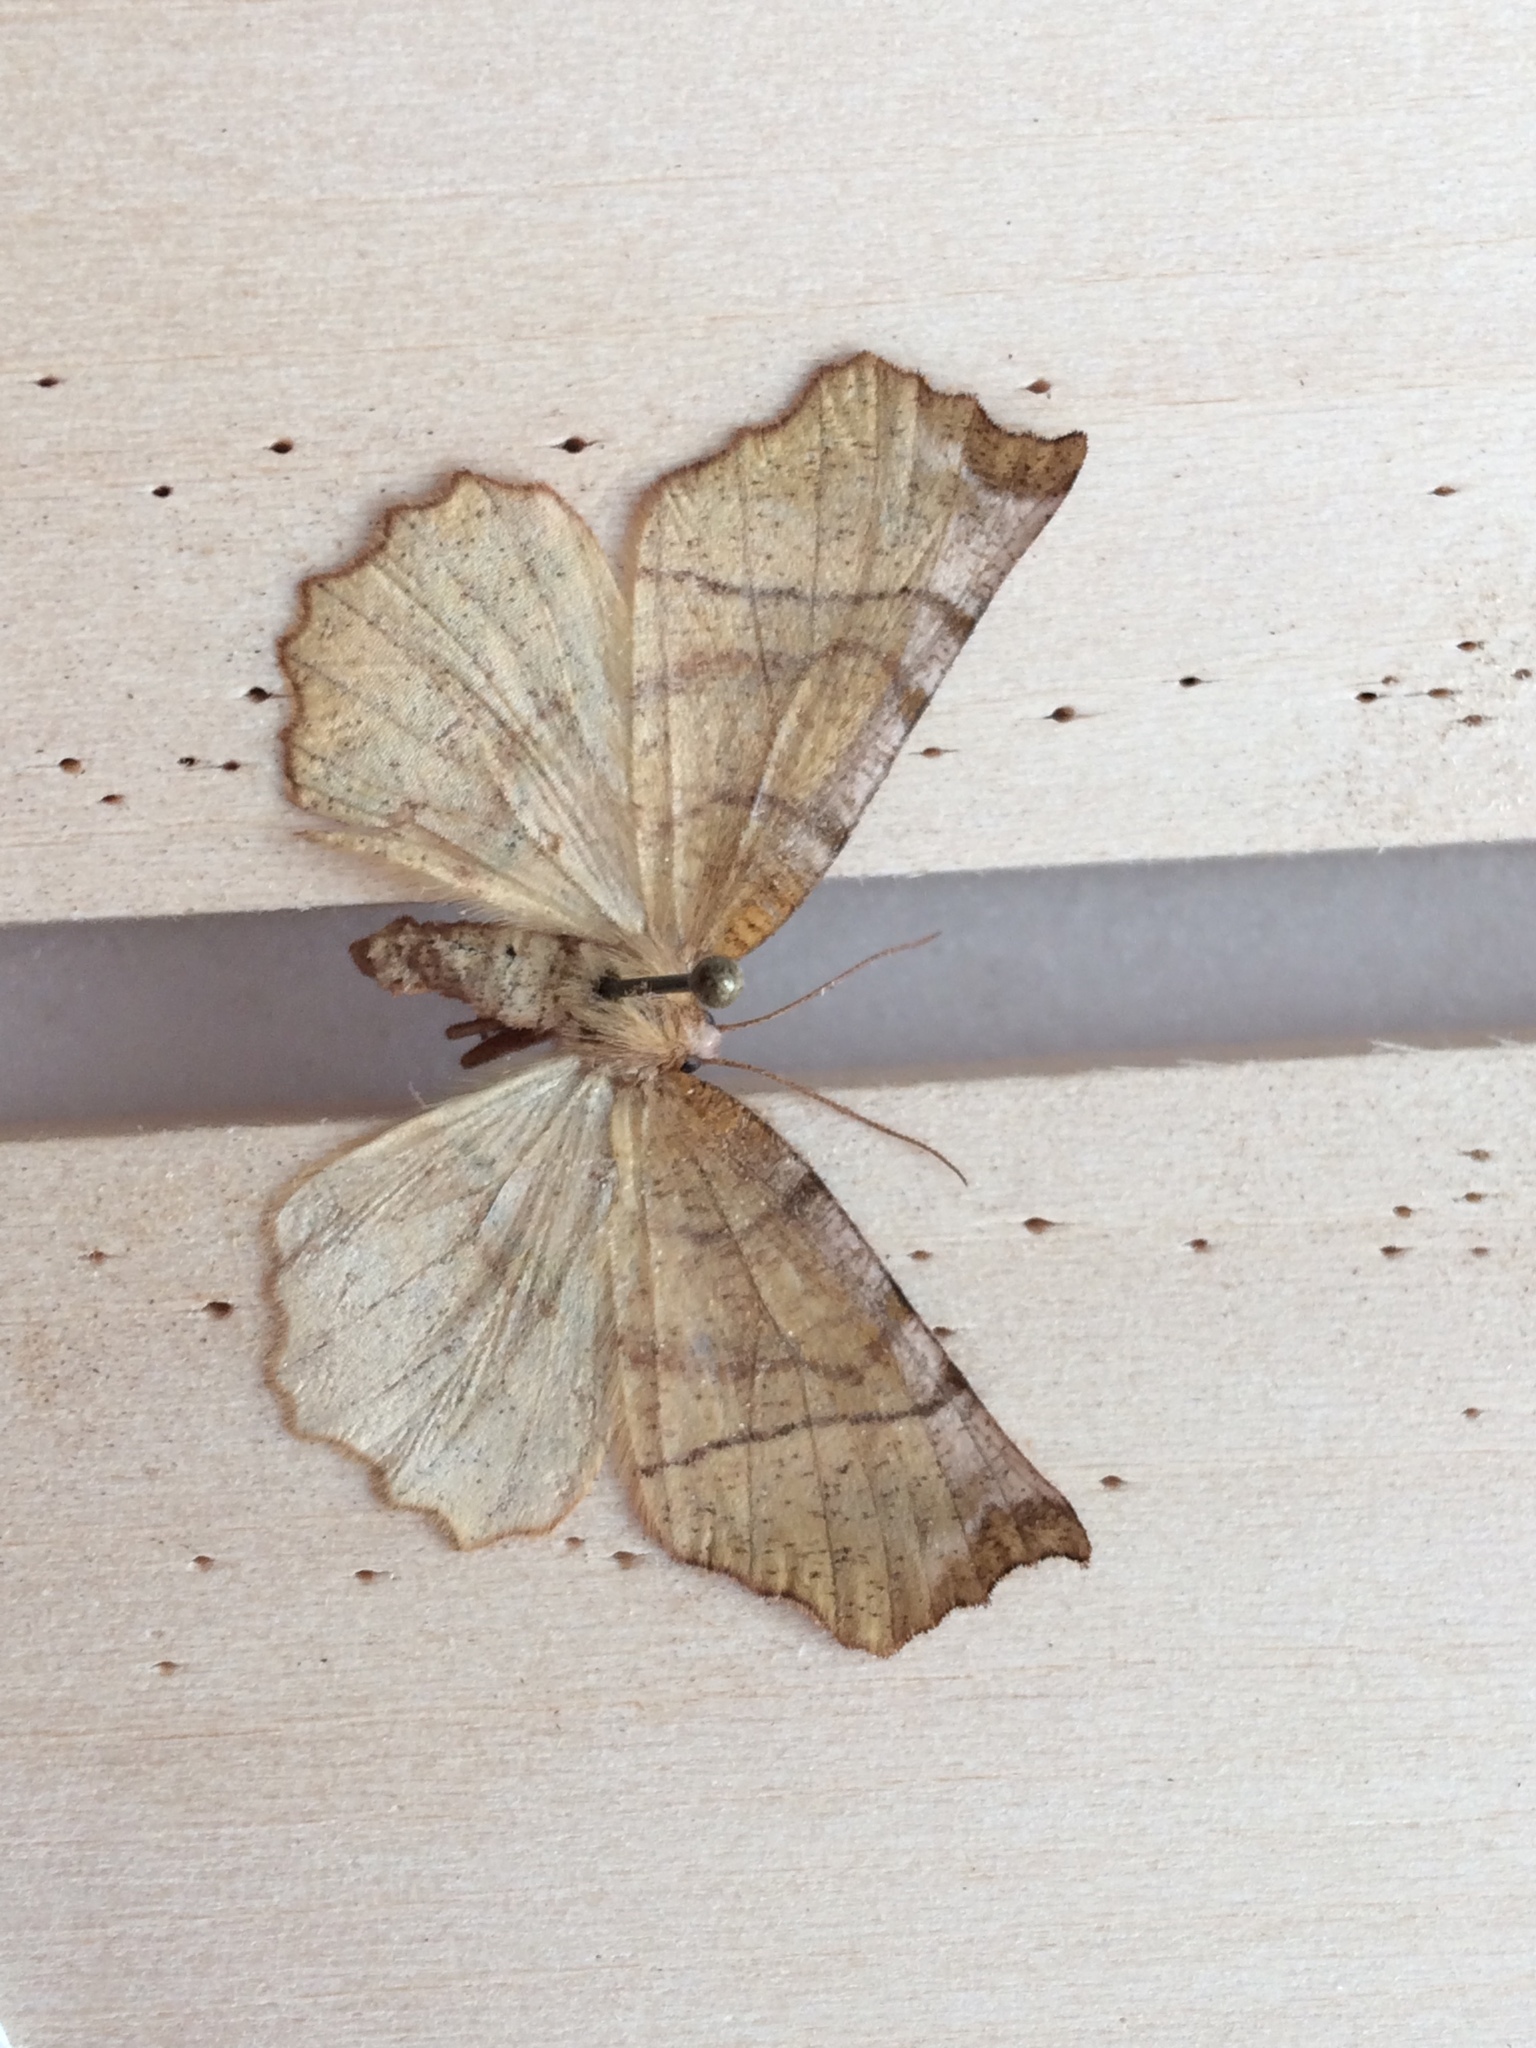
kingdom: Animalia
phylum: Arthropoda
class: Insecta
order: Lepidoptera
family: Geometridae
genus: Selenia
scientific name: Selenia dentaria
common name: Early thorn
